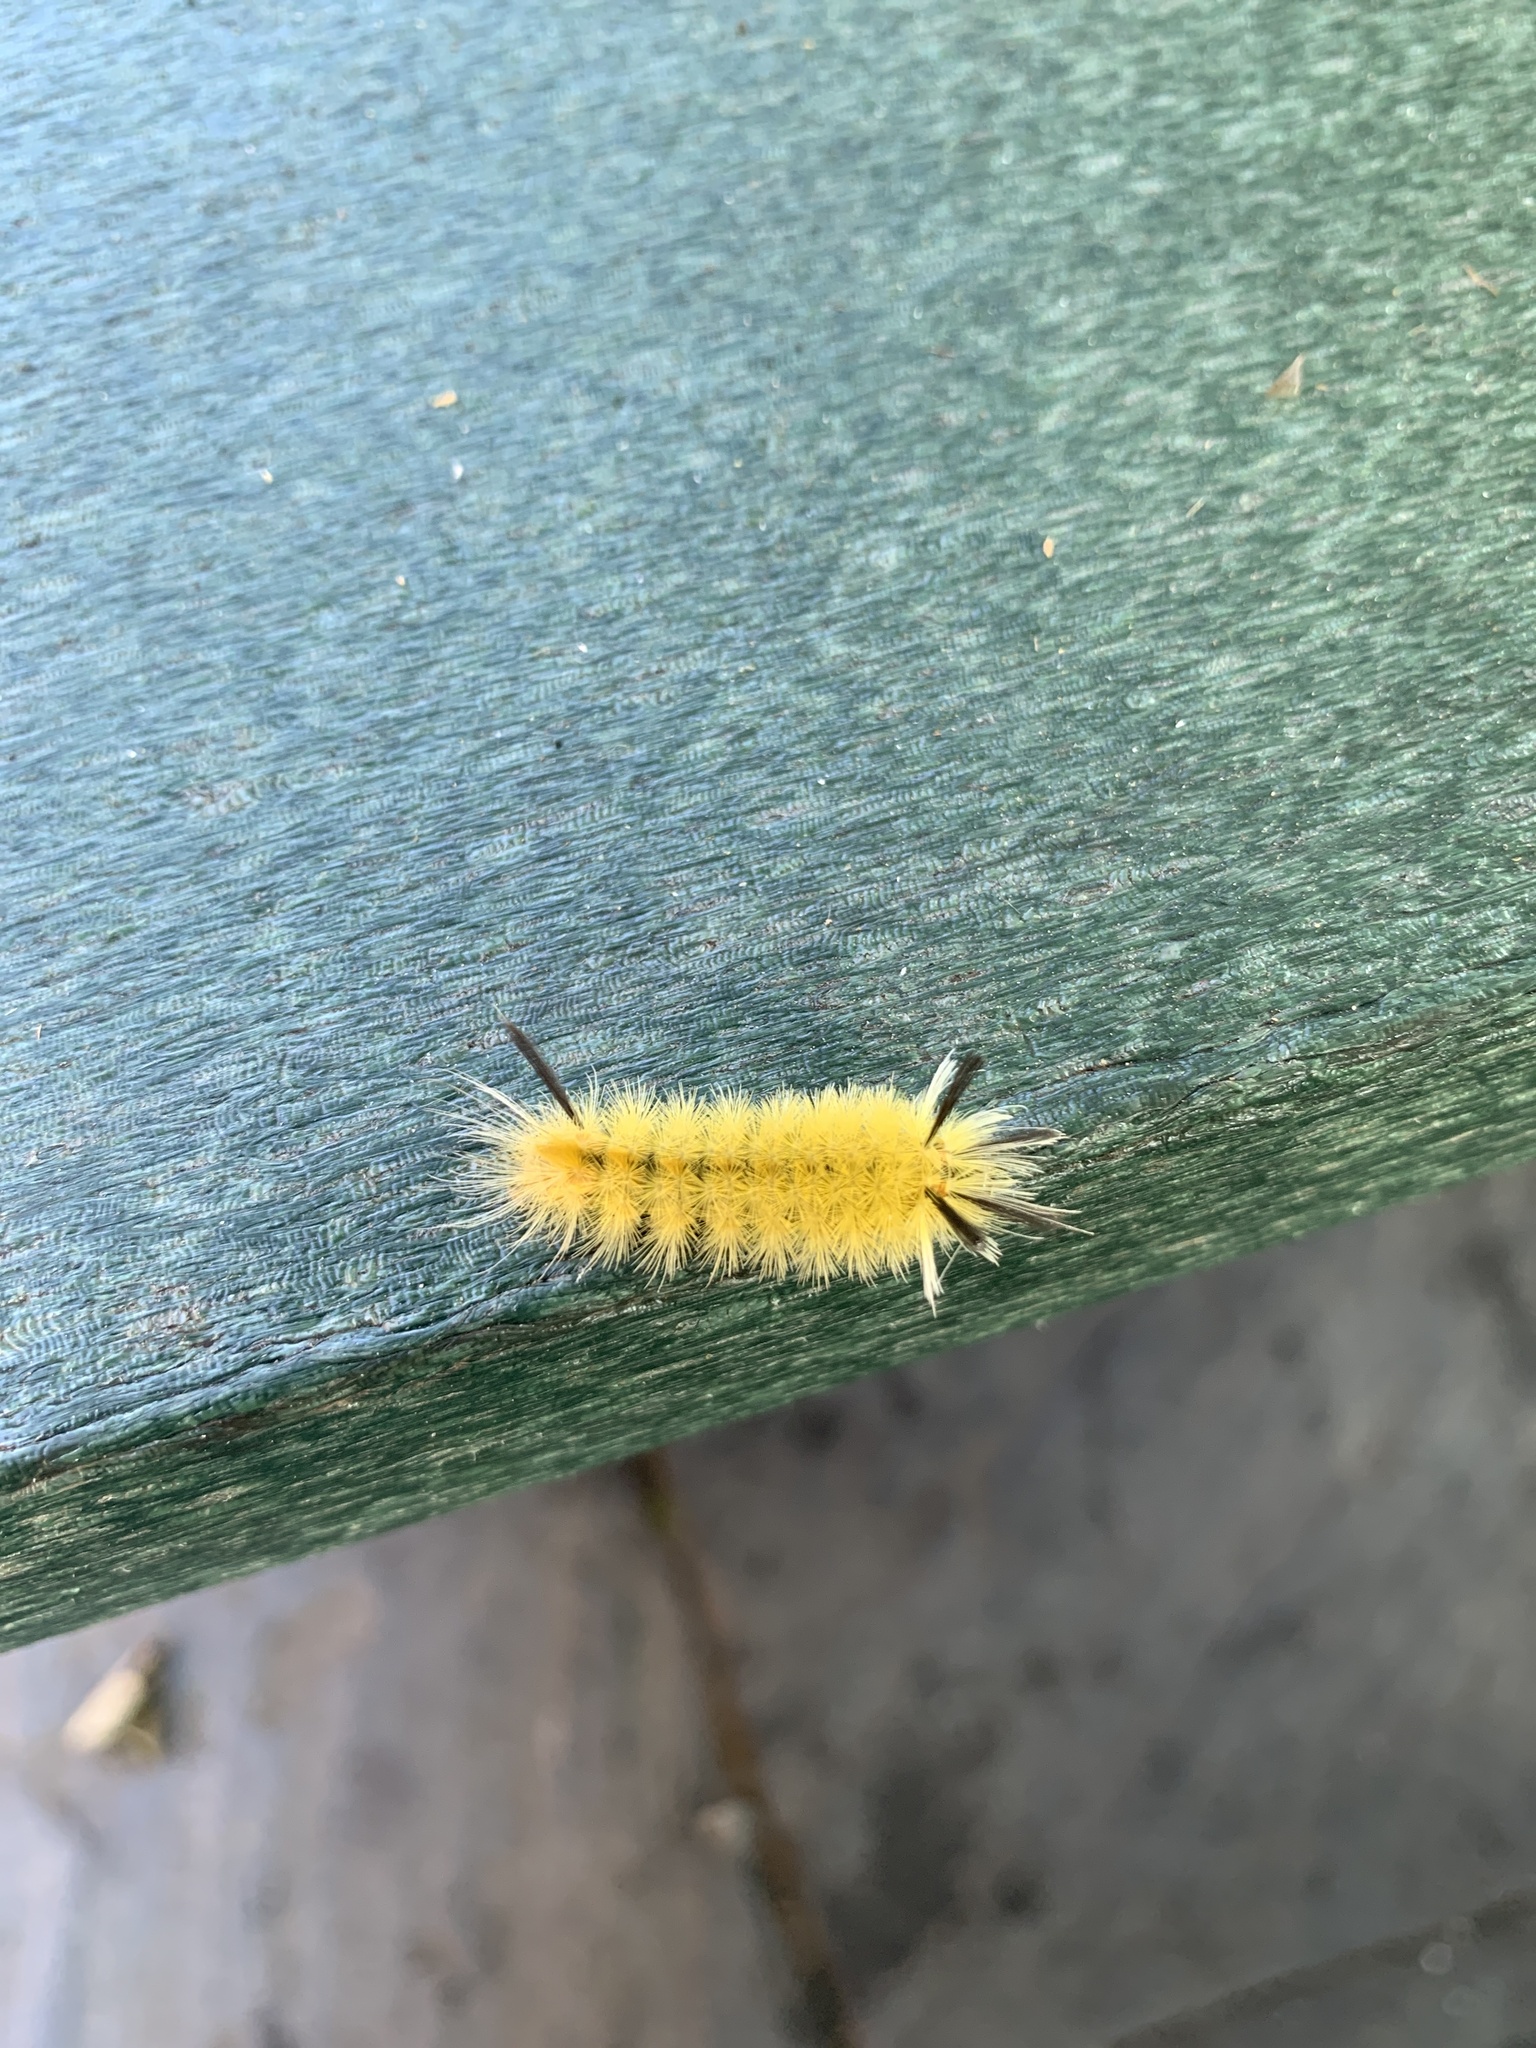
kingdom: Animalia
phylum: Arthropoda
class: Insecta
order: Lepidoptera
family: Erebidae
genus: Halysidota
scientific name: Halysidota tessellaris
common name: Banded tussock moth
